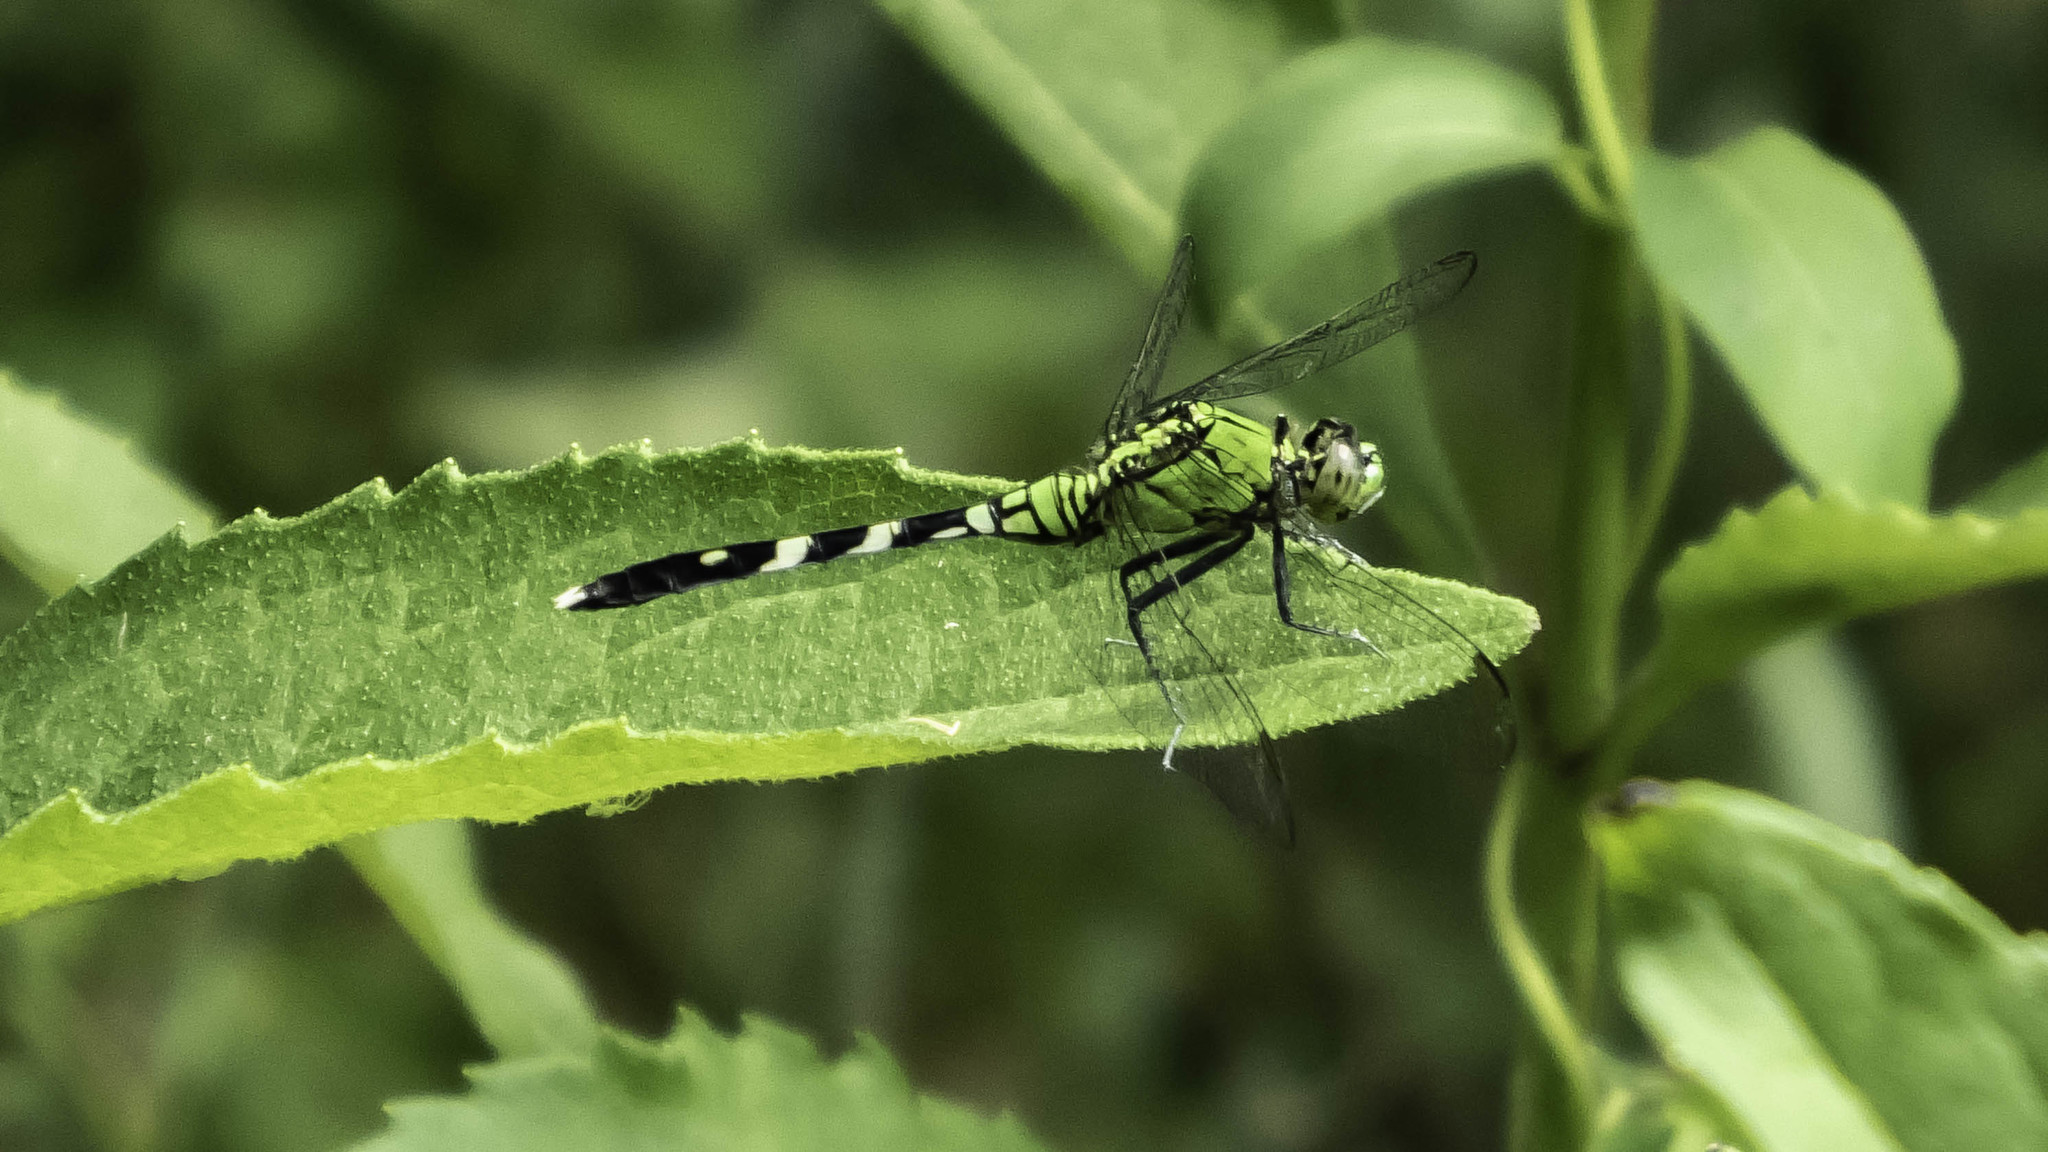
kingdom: Animalia
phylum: Arthropoda
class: Insecta
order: Odonata
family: Libellulidae
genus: Erythemis
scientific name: Erythemis simplicicollis
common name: Eastern pondhawk
